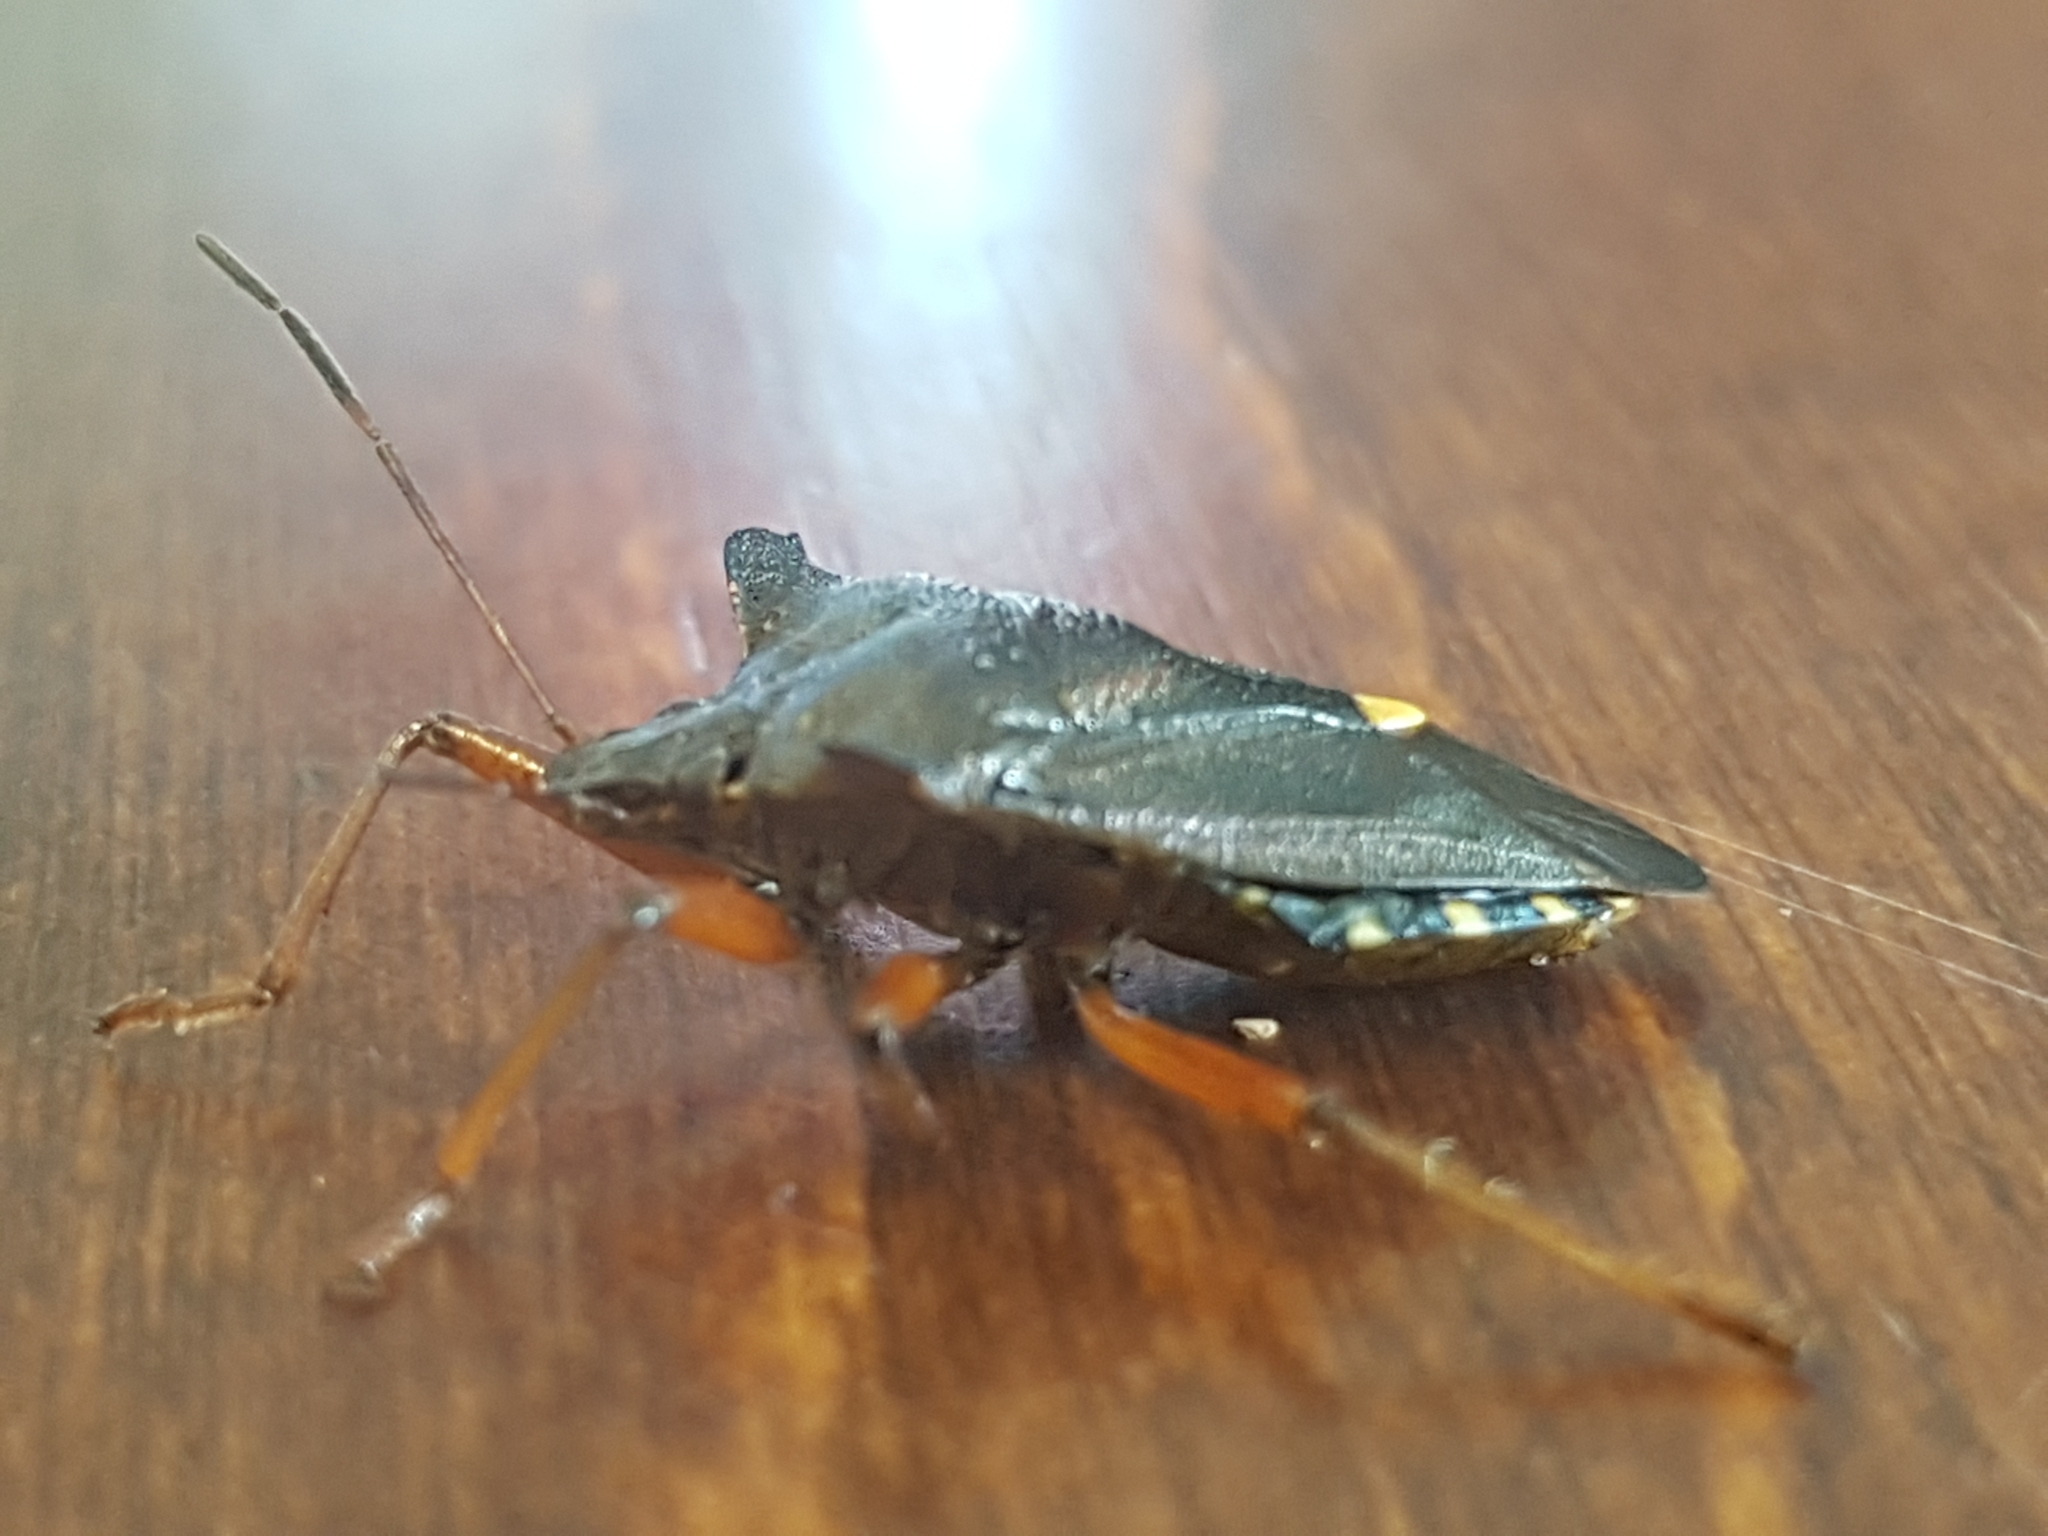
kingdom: Animalia
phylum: Arthropoda
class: Insecta
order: Hemiptera
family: Pentatomidae
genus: Pentatoma
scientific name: Pentatoma rufipes
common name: Forest bug
